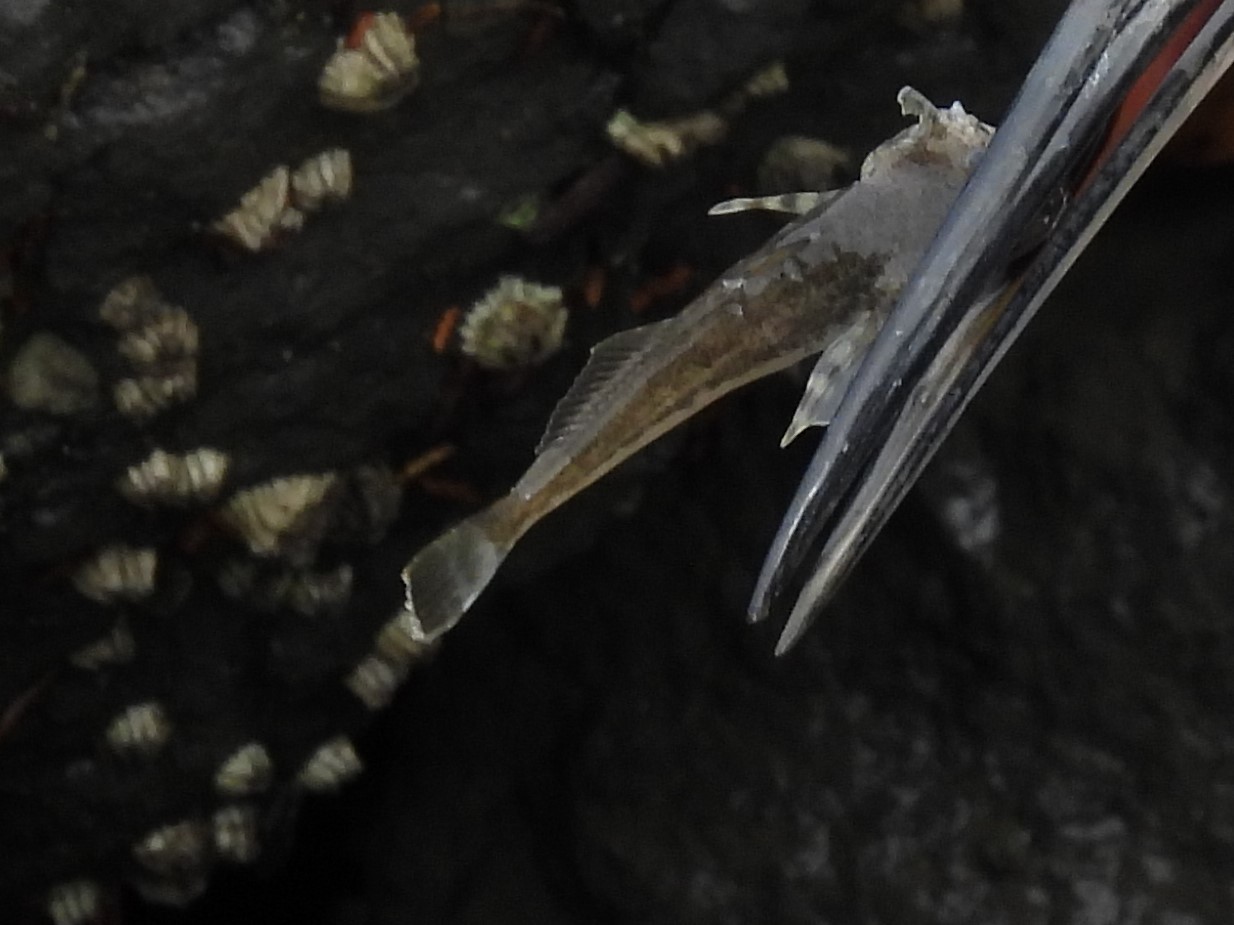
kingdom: Animalia
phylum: Chordata
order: Scorpaeniformes
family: Cottidae
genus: Leptocottus
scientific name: Leptocottus armatus
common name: Pacific staghorn sculpin
